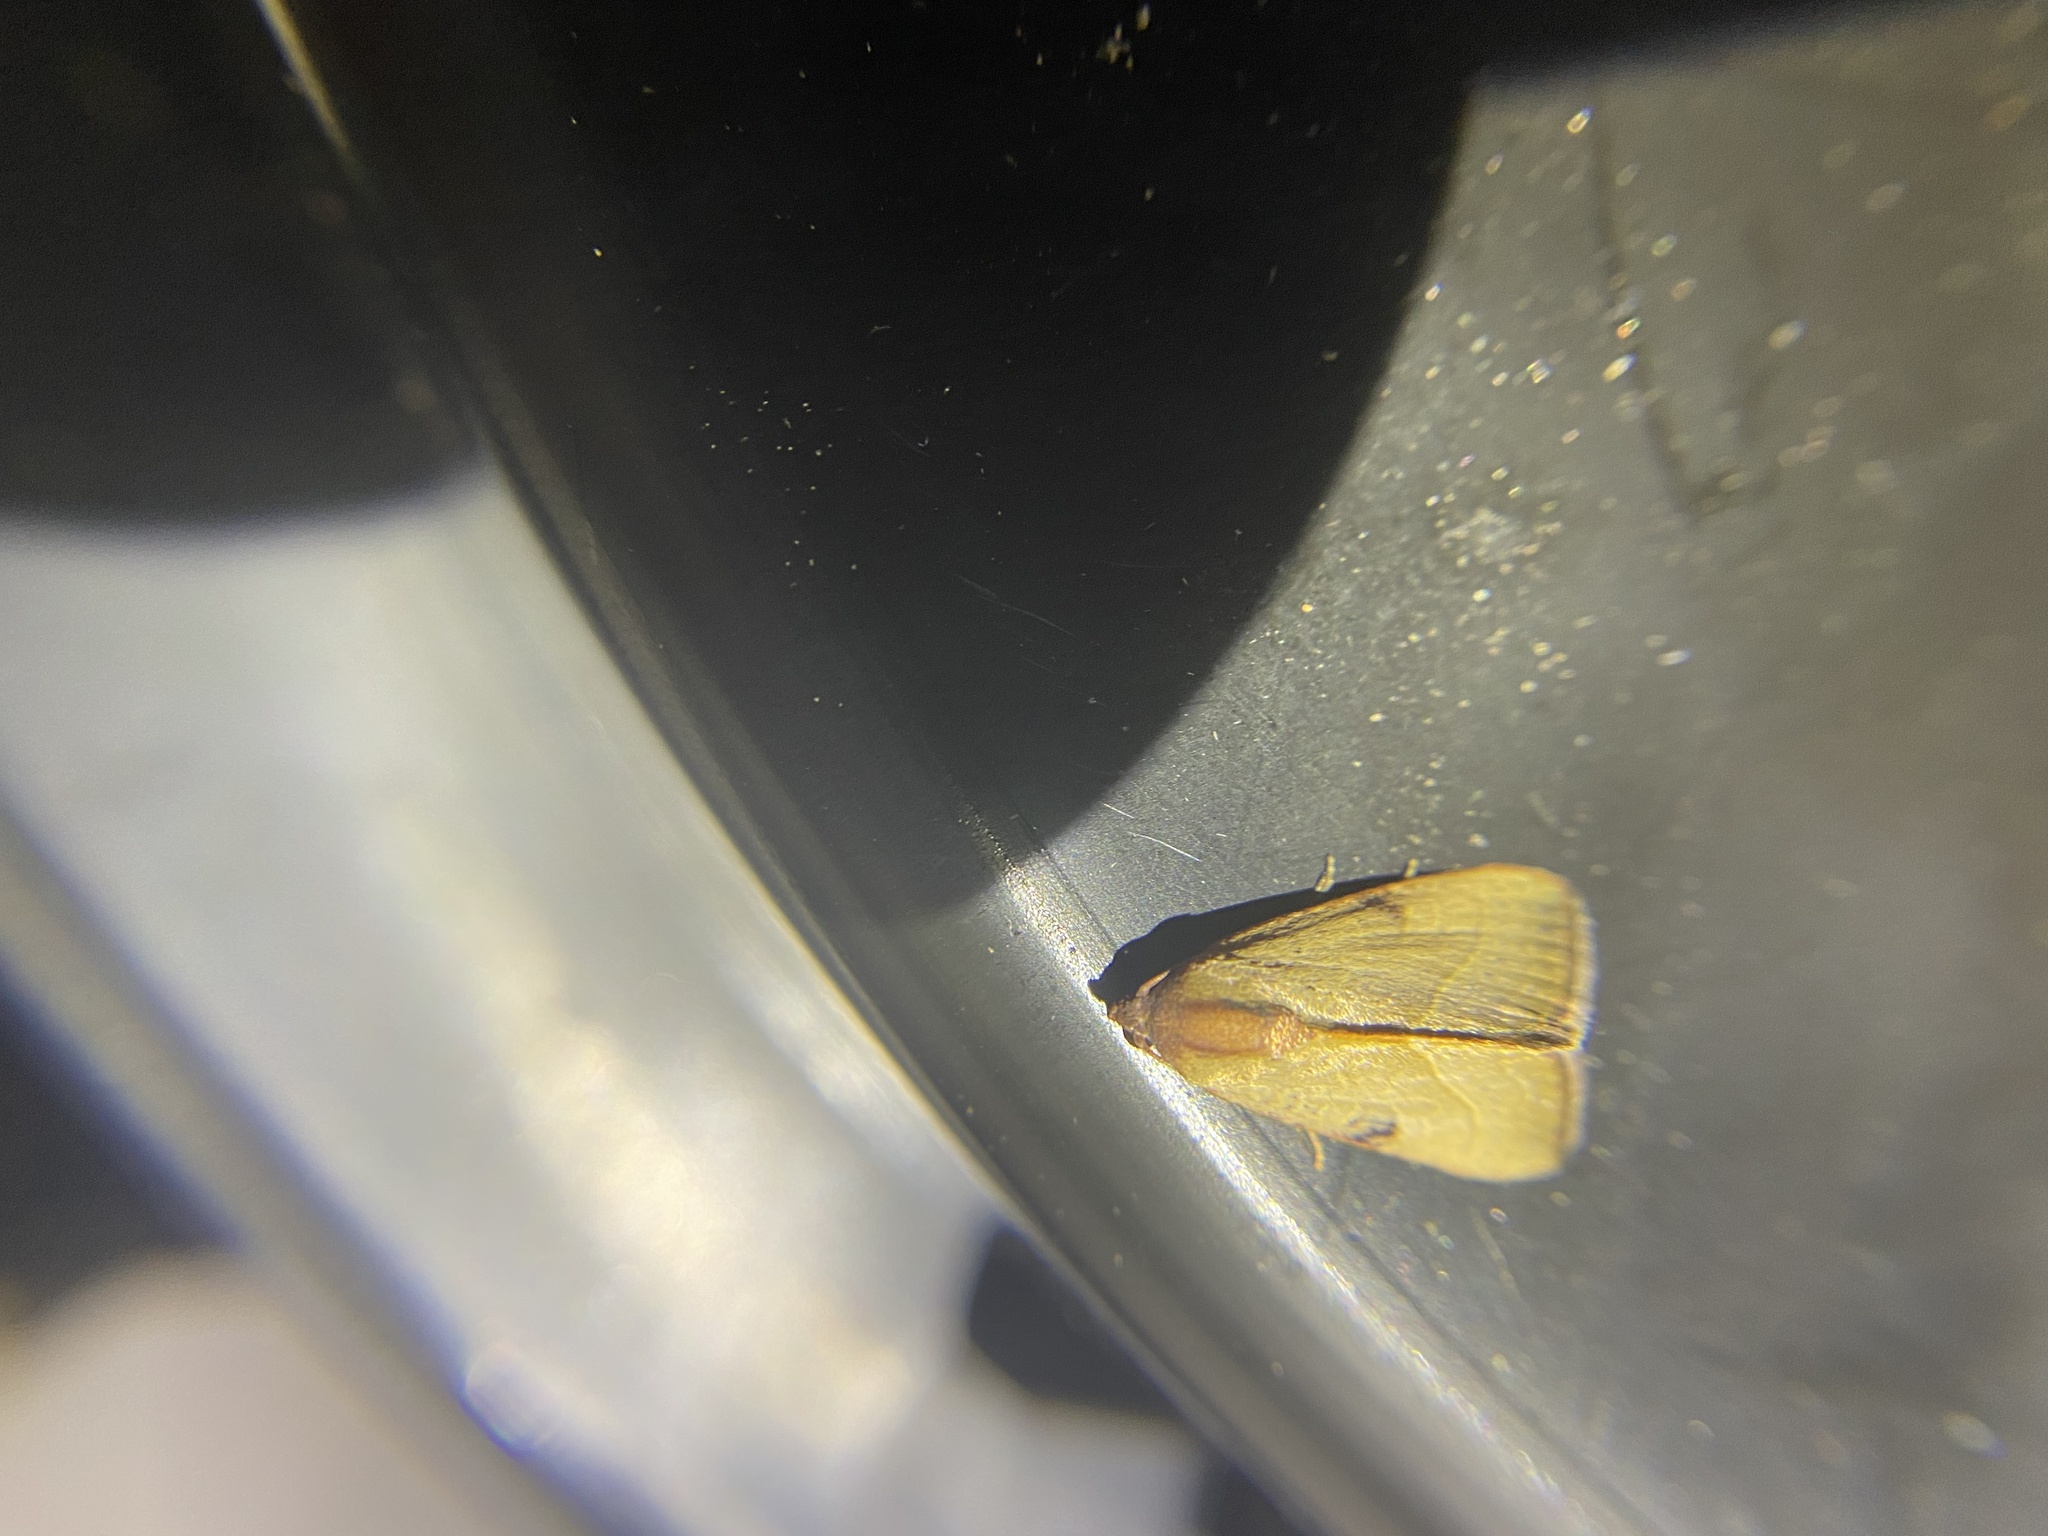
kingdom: Animalia
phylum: Arthropoda
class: Insecta
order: Lepidoptera
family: Noctuidae
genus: Galgula
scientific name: Galgula partita
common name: Wedgeling
